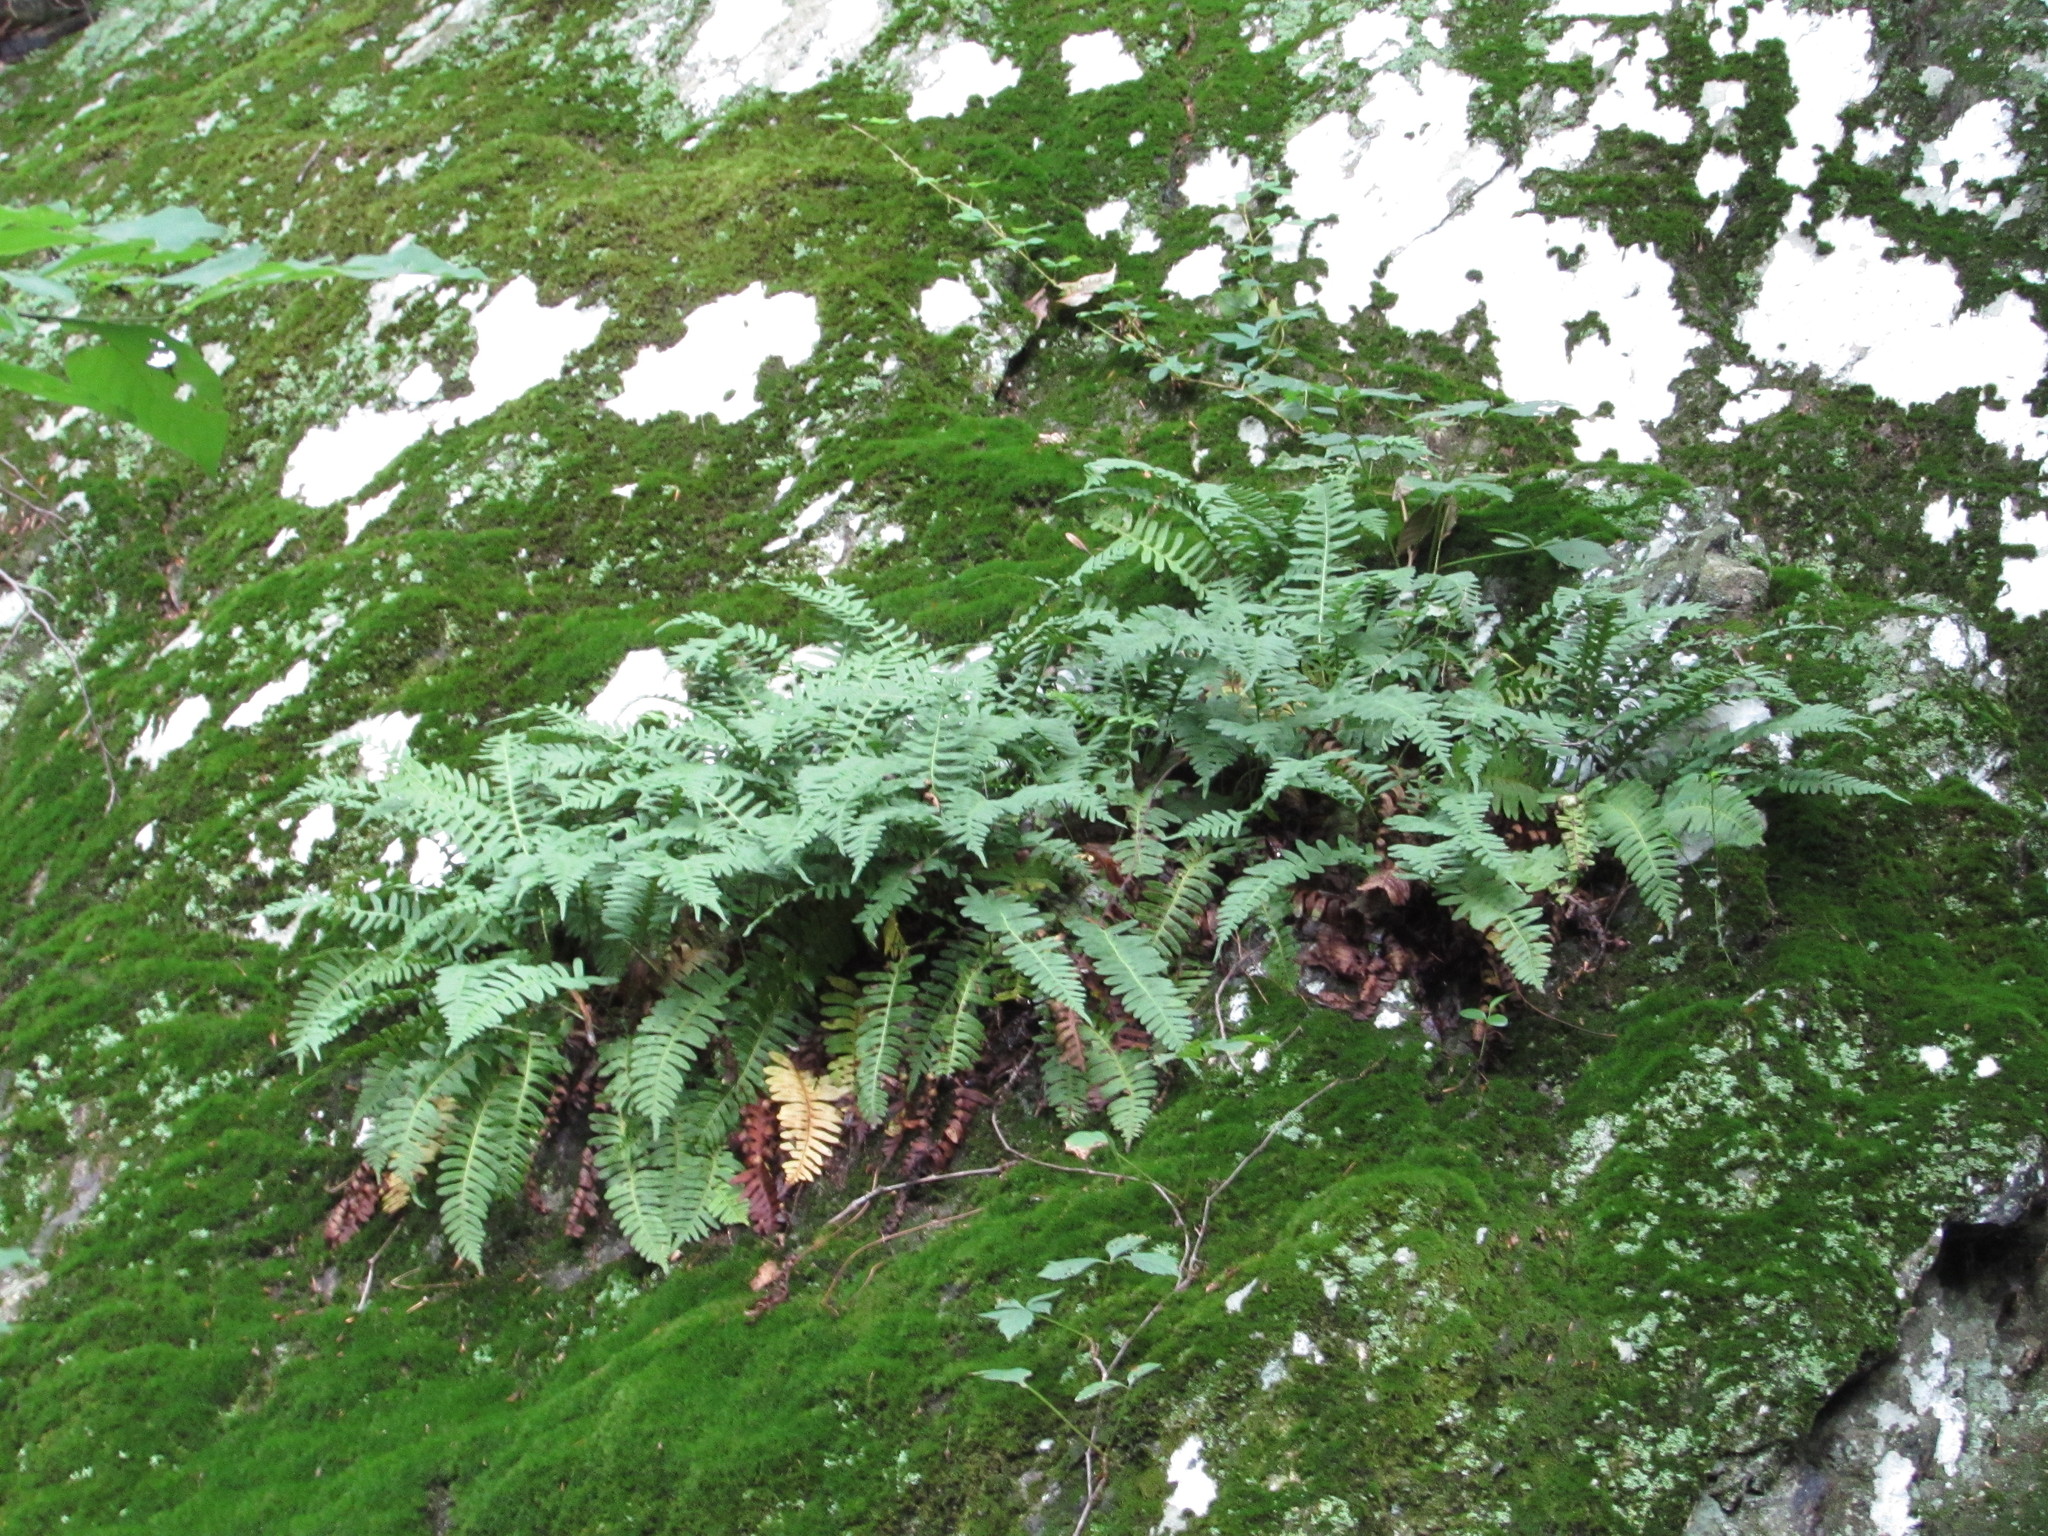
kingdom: Plantae
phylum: Tracheophyta
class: Polypodiopsida
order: Polypodiales
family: Polypodiaceae
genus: Polypodium
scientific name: Polypodium virginianum
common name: American wall fern
